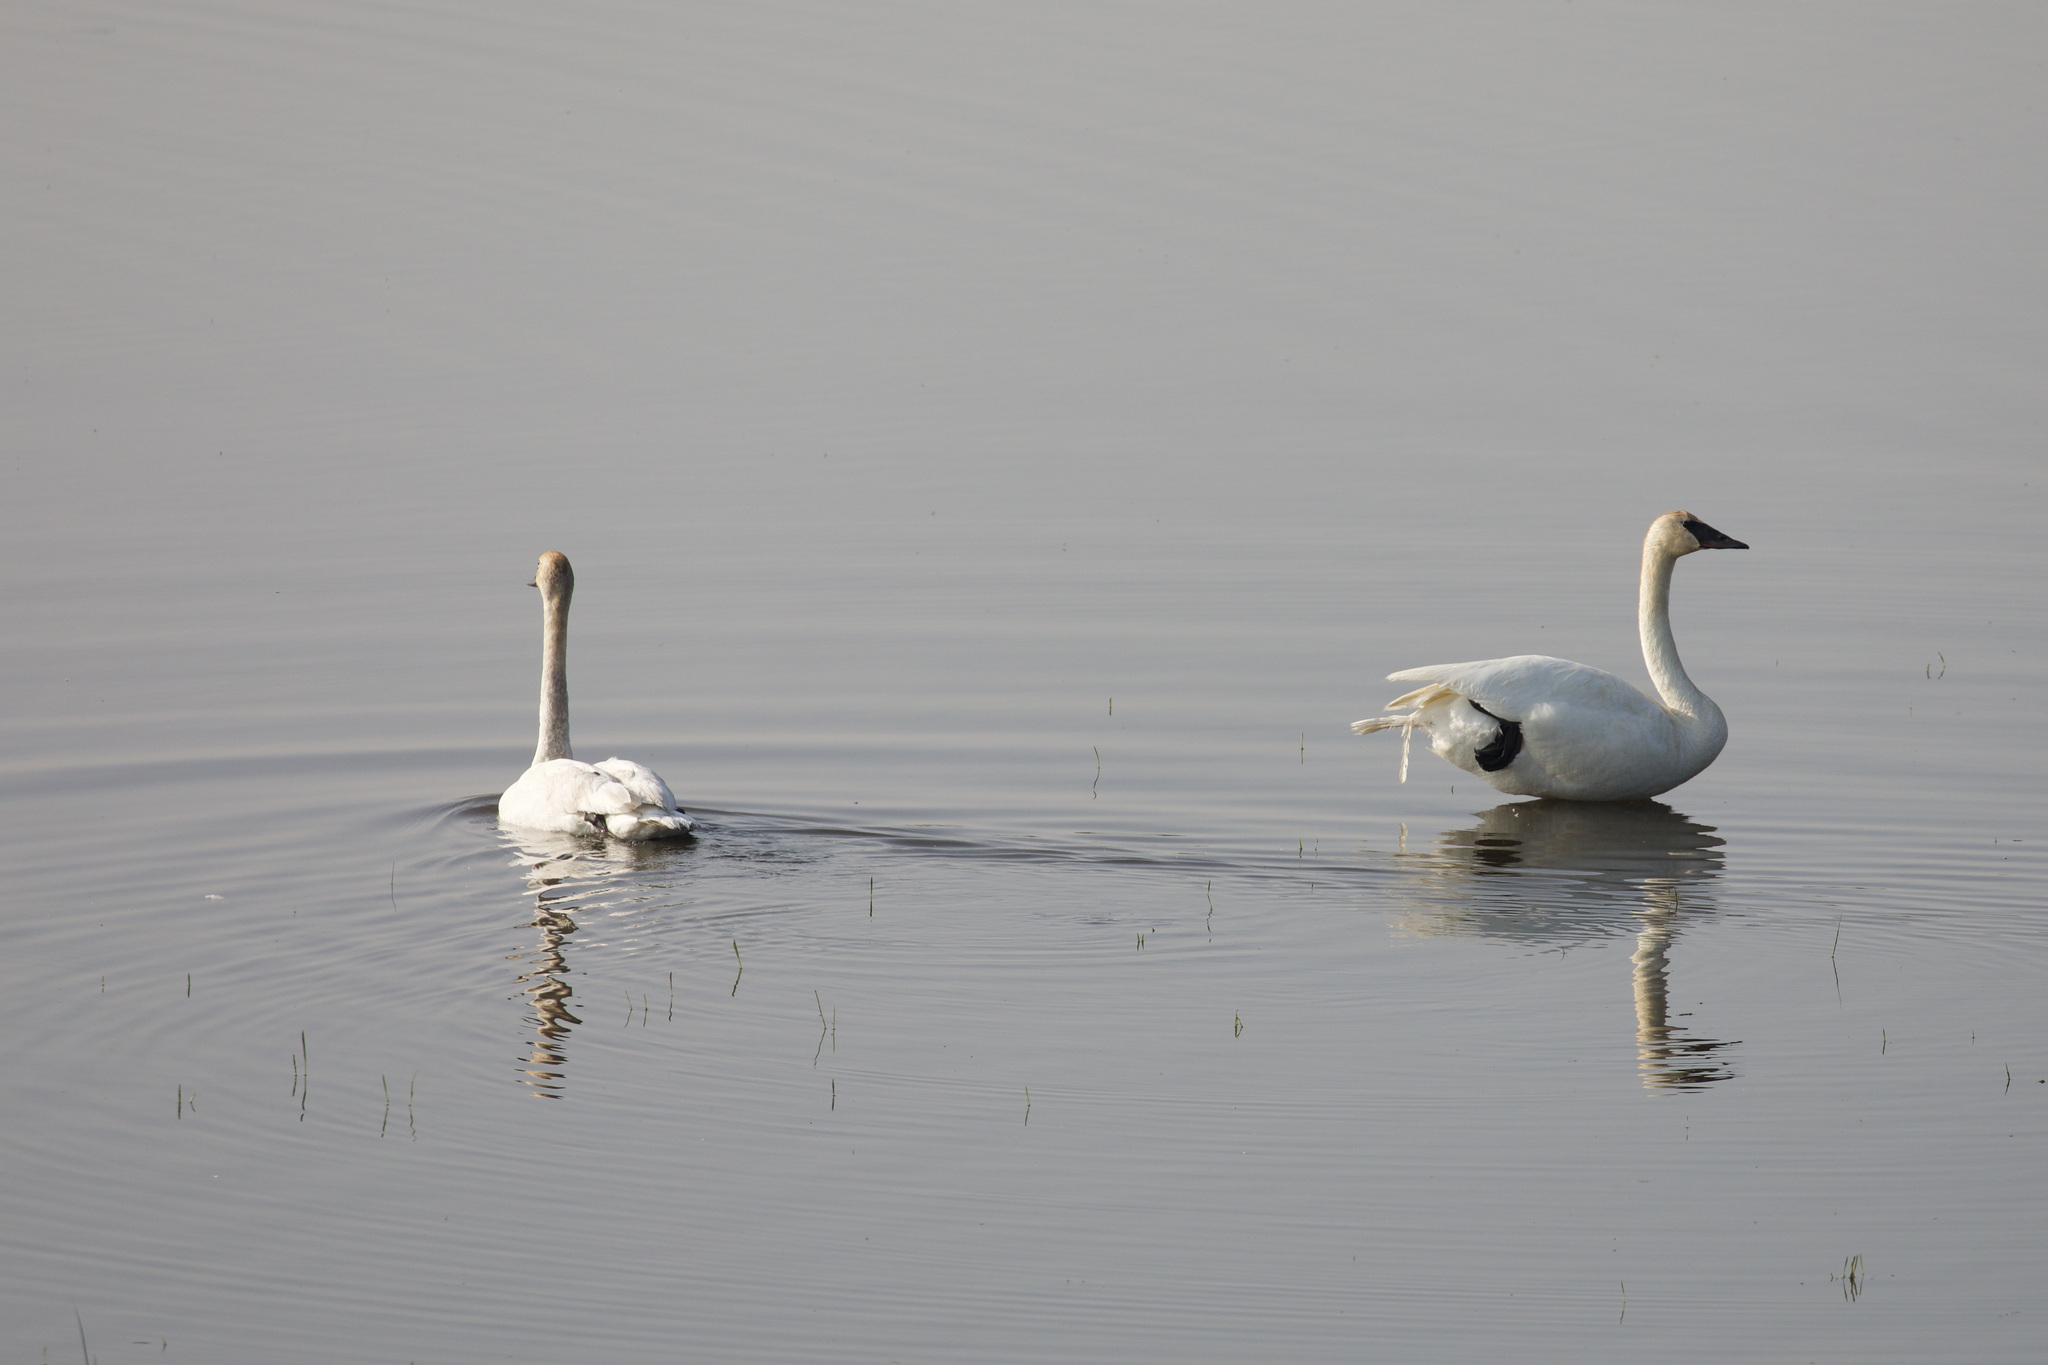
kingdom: Animalia
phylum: Chordata
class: Aves
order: Anseriformes
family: Anatidae
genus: Cygnus
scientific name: Cygnus buccinator
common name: Trumpeter swan
